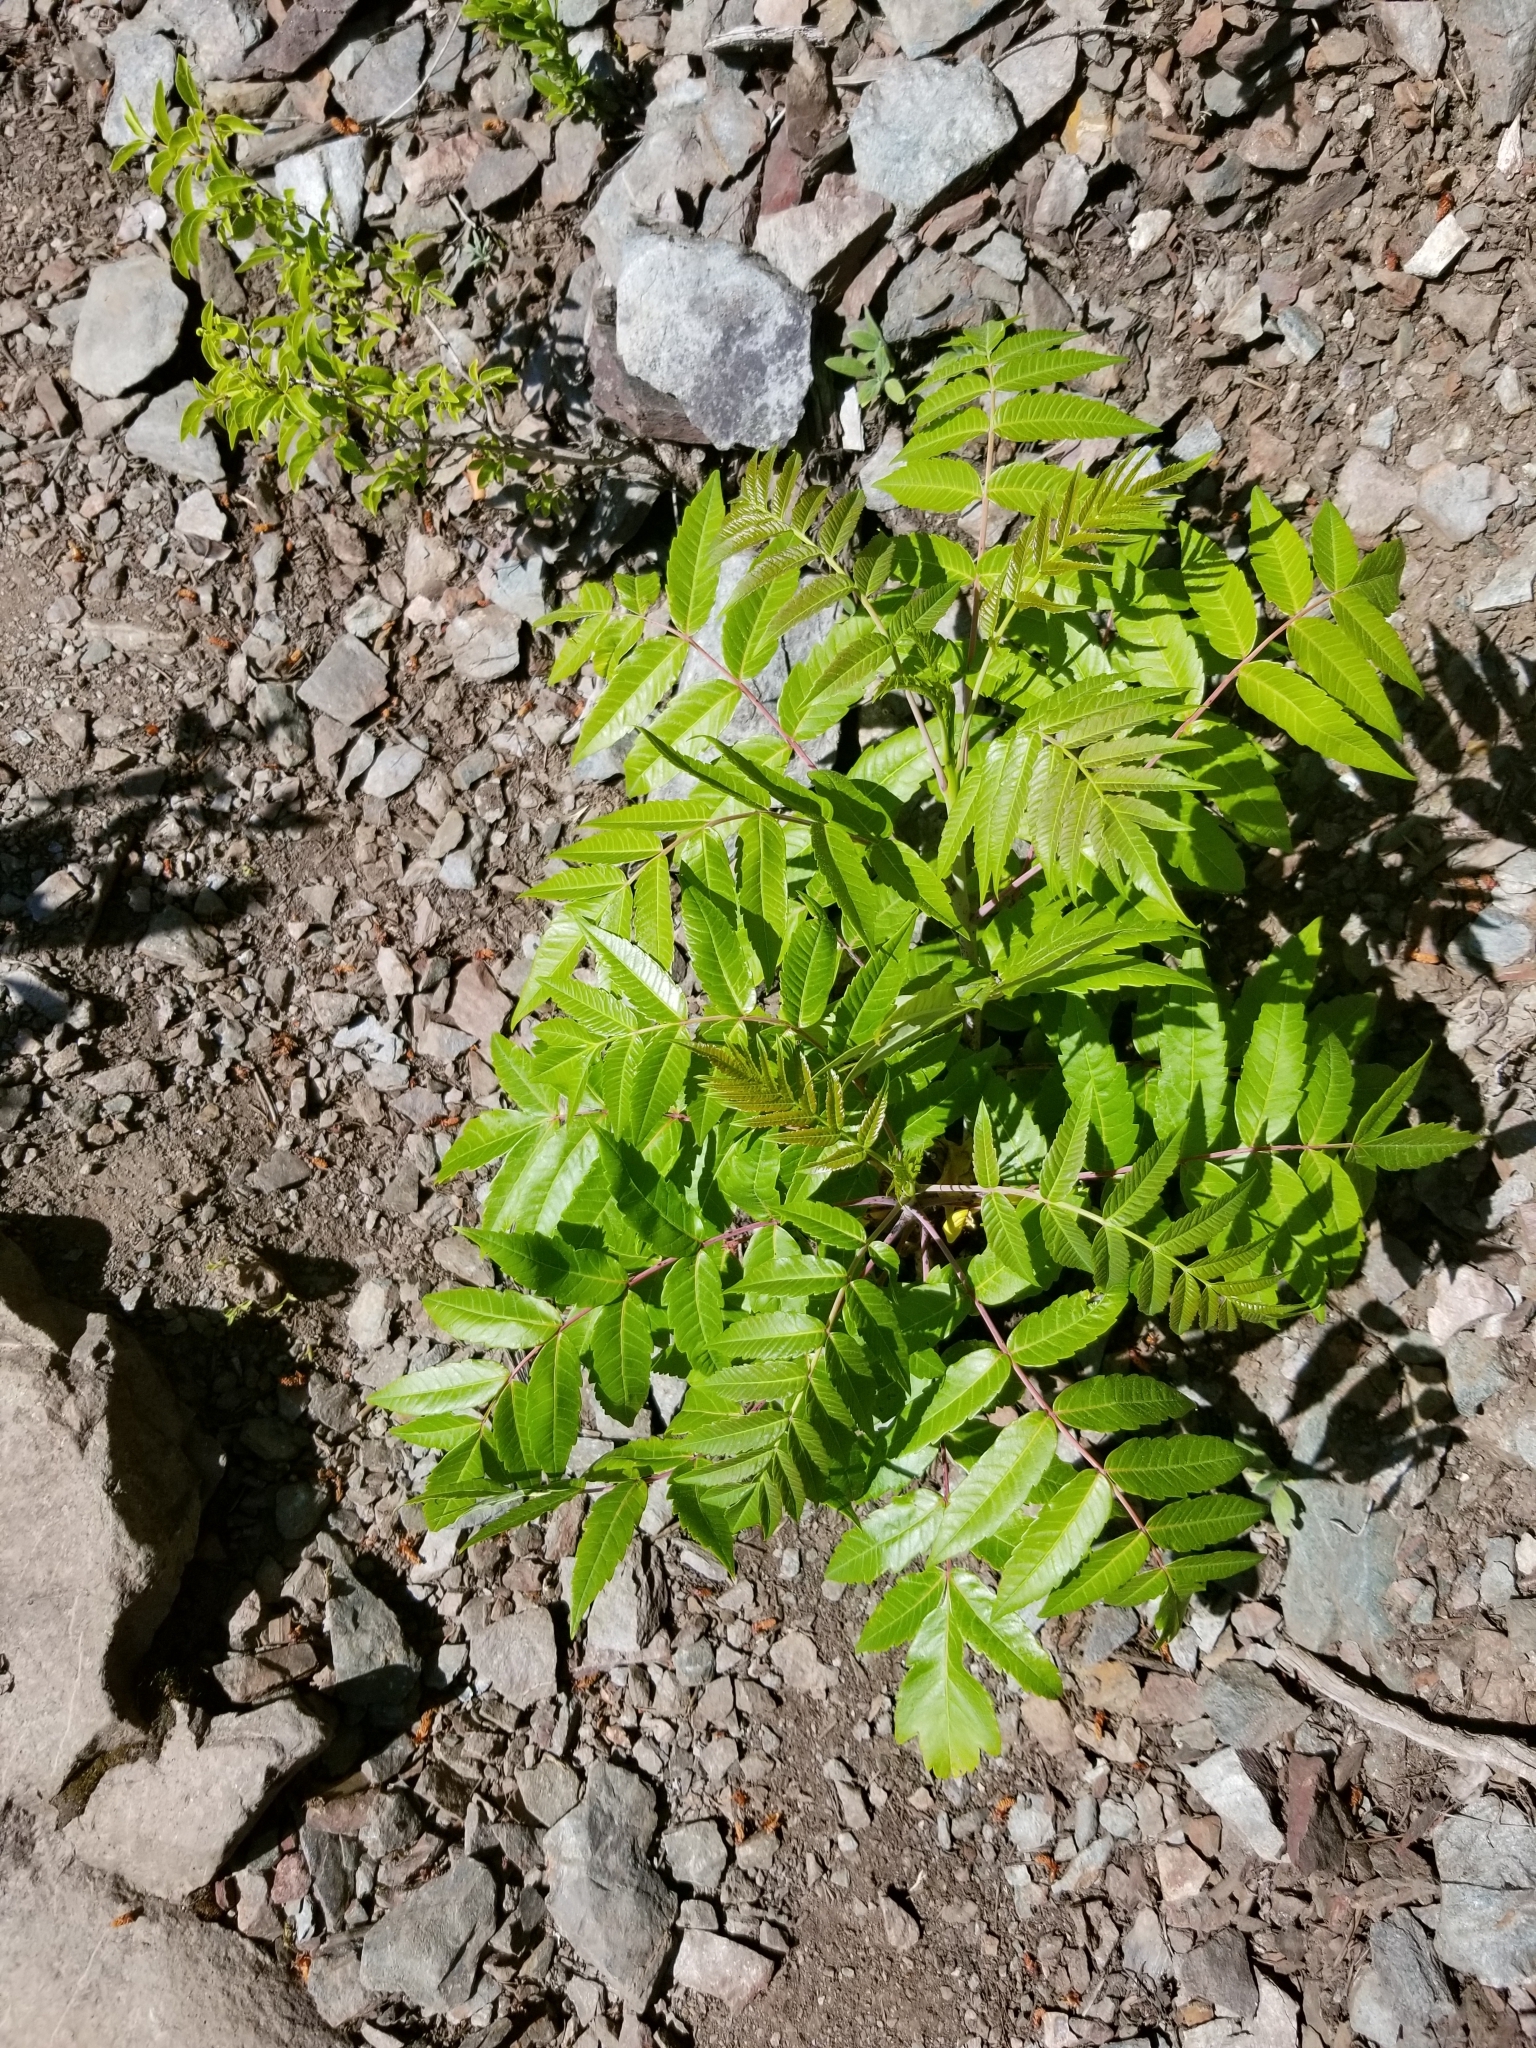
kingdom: Plantae
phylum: Tracheophyta
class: Magnoliopsida
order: Sapindales
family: Anacardiaceae
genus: Rhus
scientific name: Rhus glabra
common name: Scarlet sumac
